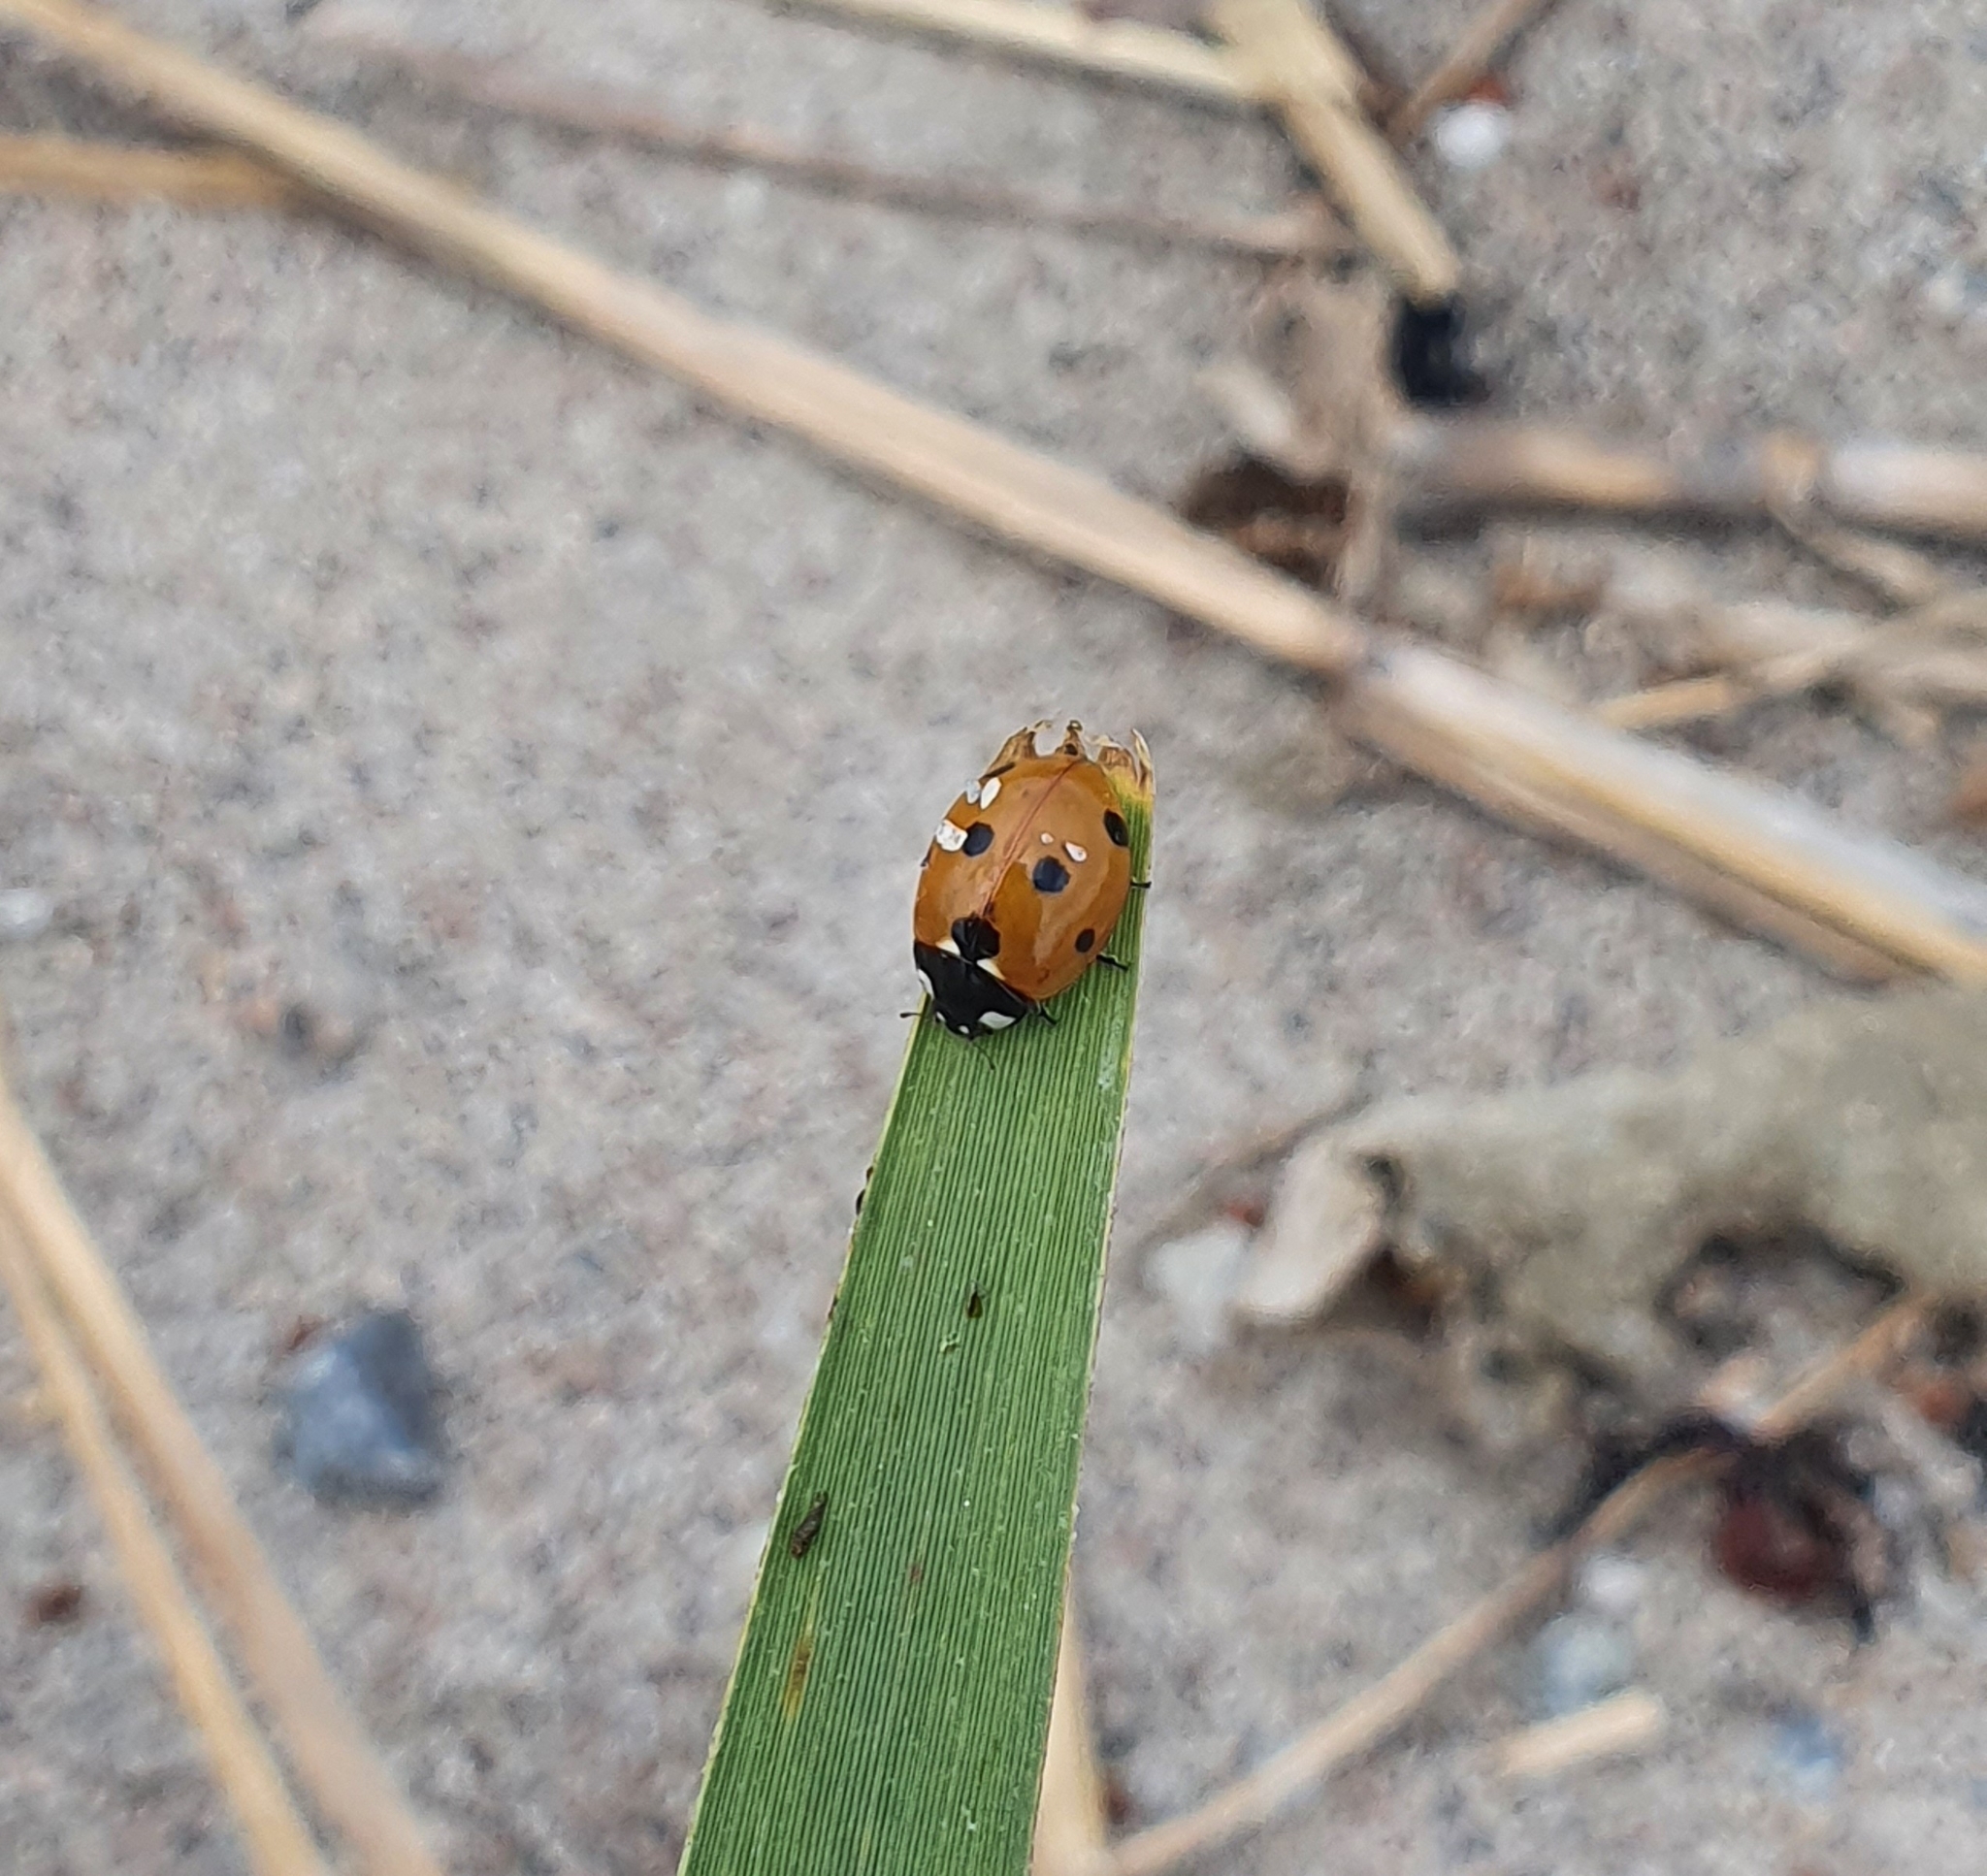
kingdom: Animalia
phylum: Arthropoda
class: Insecta
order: Coleoptera
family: Coccinellidae
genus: Coccinella
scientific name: Coccinella septempunctata
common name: Sevenspotted lady beetle
